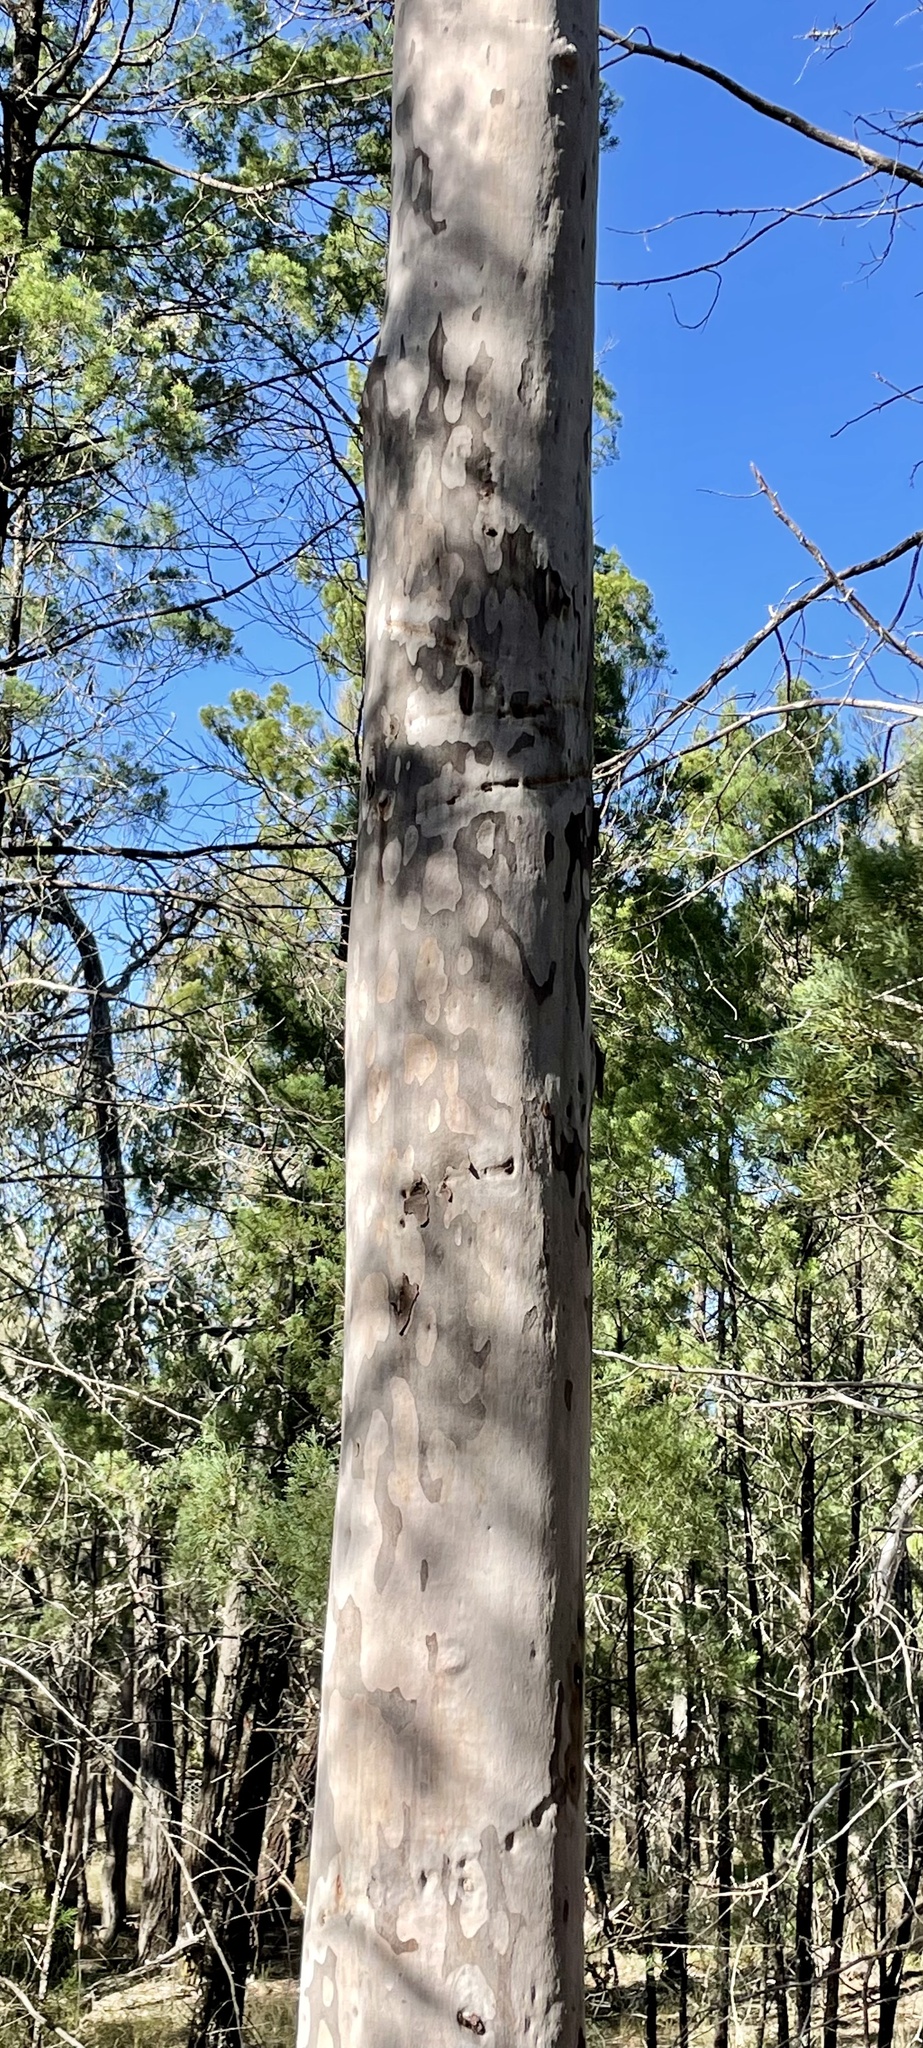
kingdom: Plantae
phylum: Tracheophyta
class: Magnoliopsida
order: Myrtales
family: Myrtaceae
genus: Angophora
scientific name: Angophora leiocarpa
